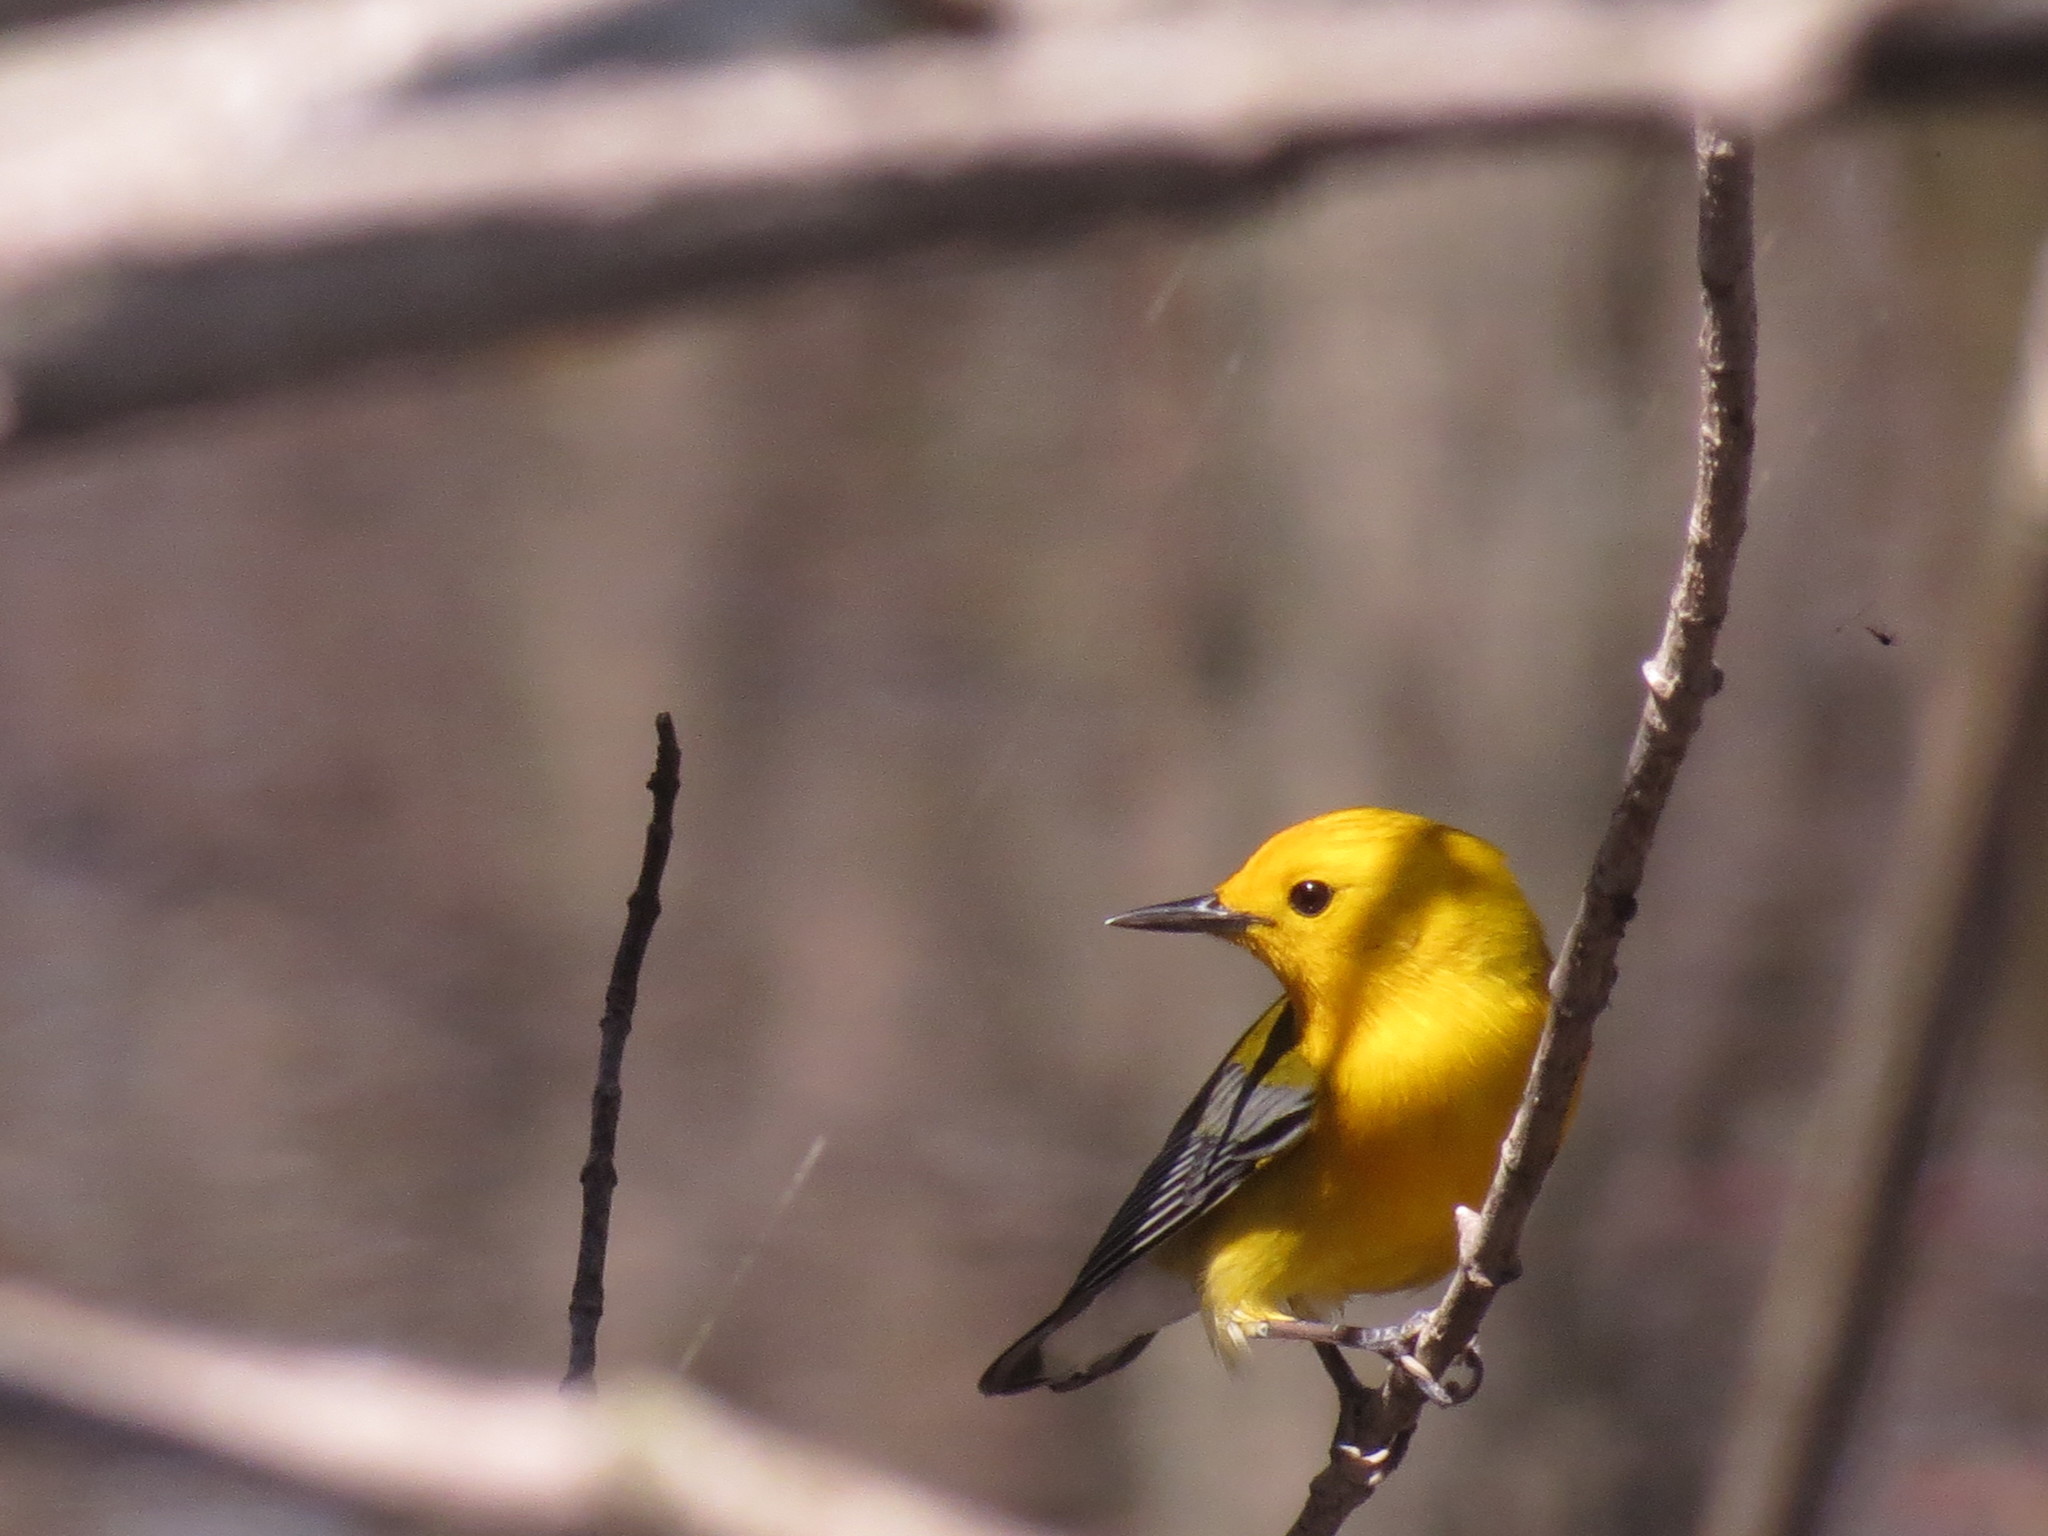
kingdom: Animalia
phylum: Chordata
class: Aves
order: Passeriformes
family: Parulidae
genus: Protonotaria
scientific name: Protonotaria citrea
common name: Prothonotary warbler
